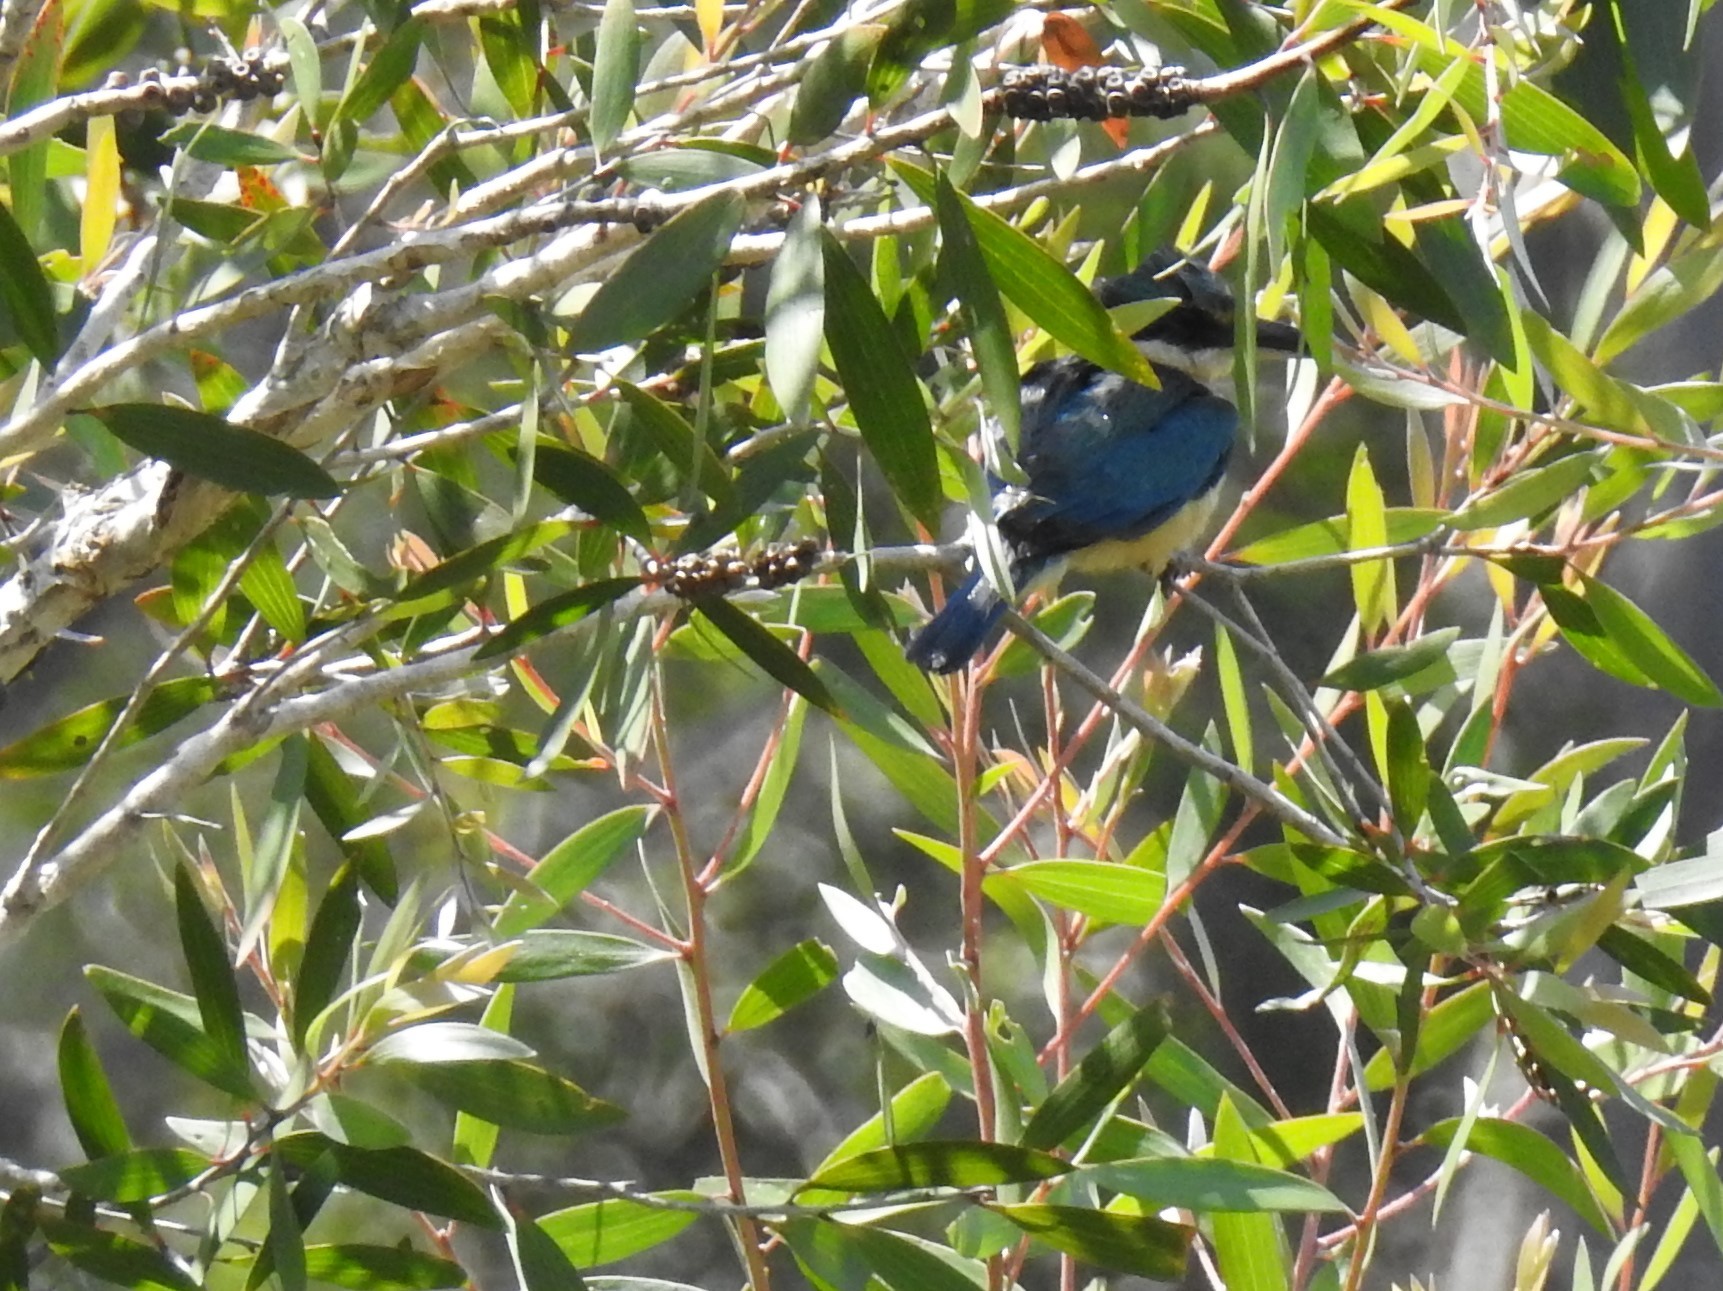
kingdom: Animalia
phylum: Chordata
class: Aves
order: Coraciiformes
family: Alcedinidae
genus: Todiramphus
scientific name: Todiramphus sanctus
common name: Sacred kingfisher
